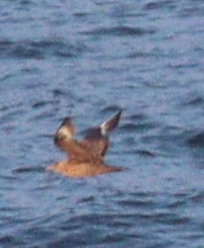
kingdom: Animalia
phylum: Chordata
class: Aves
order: Charadriiformes
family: Stercorariidae
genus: Stercorarius
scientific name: Stercorarius skua
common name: Great skua
